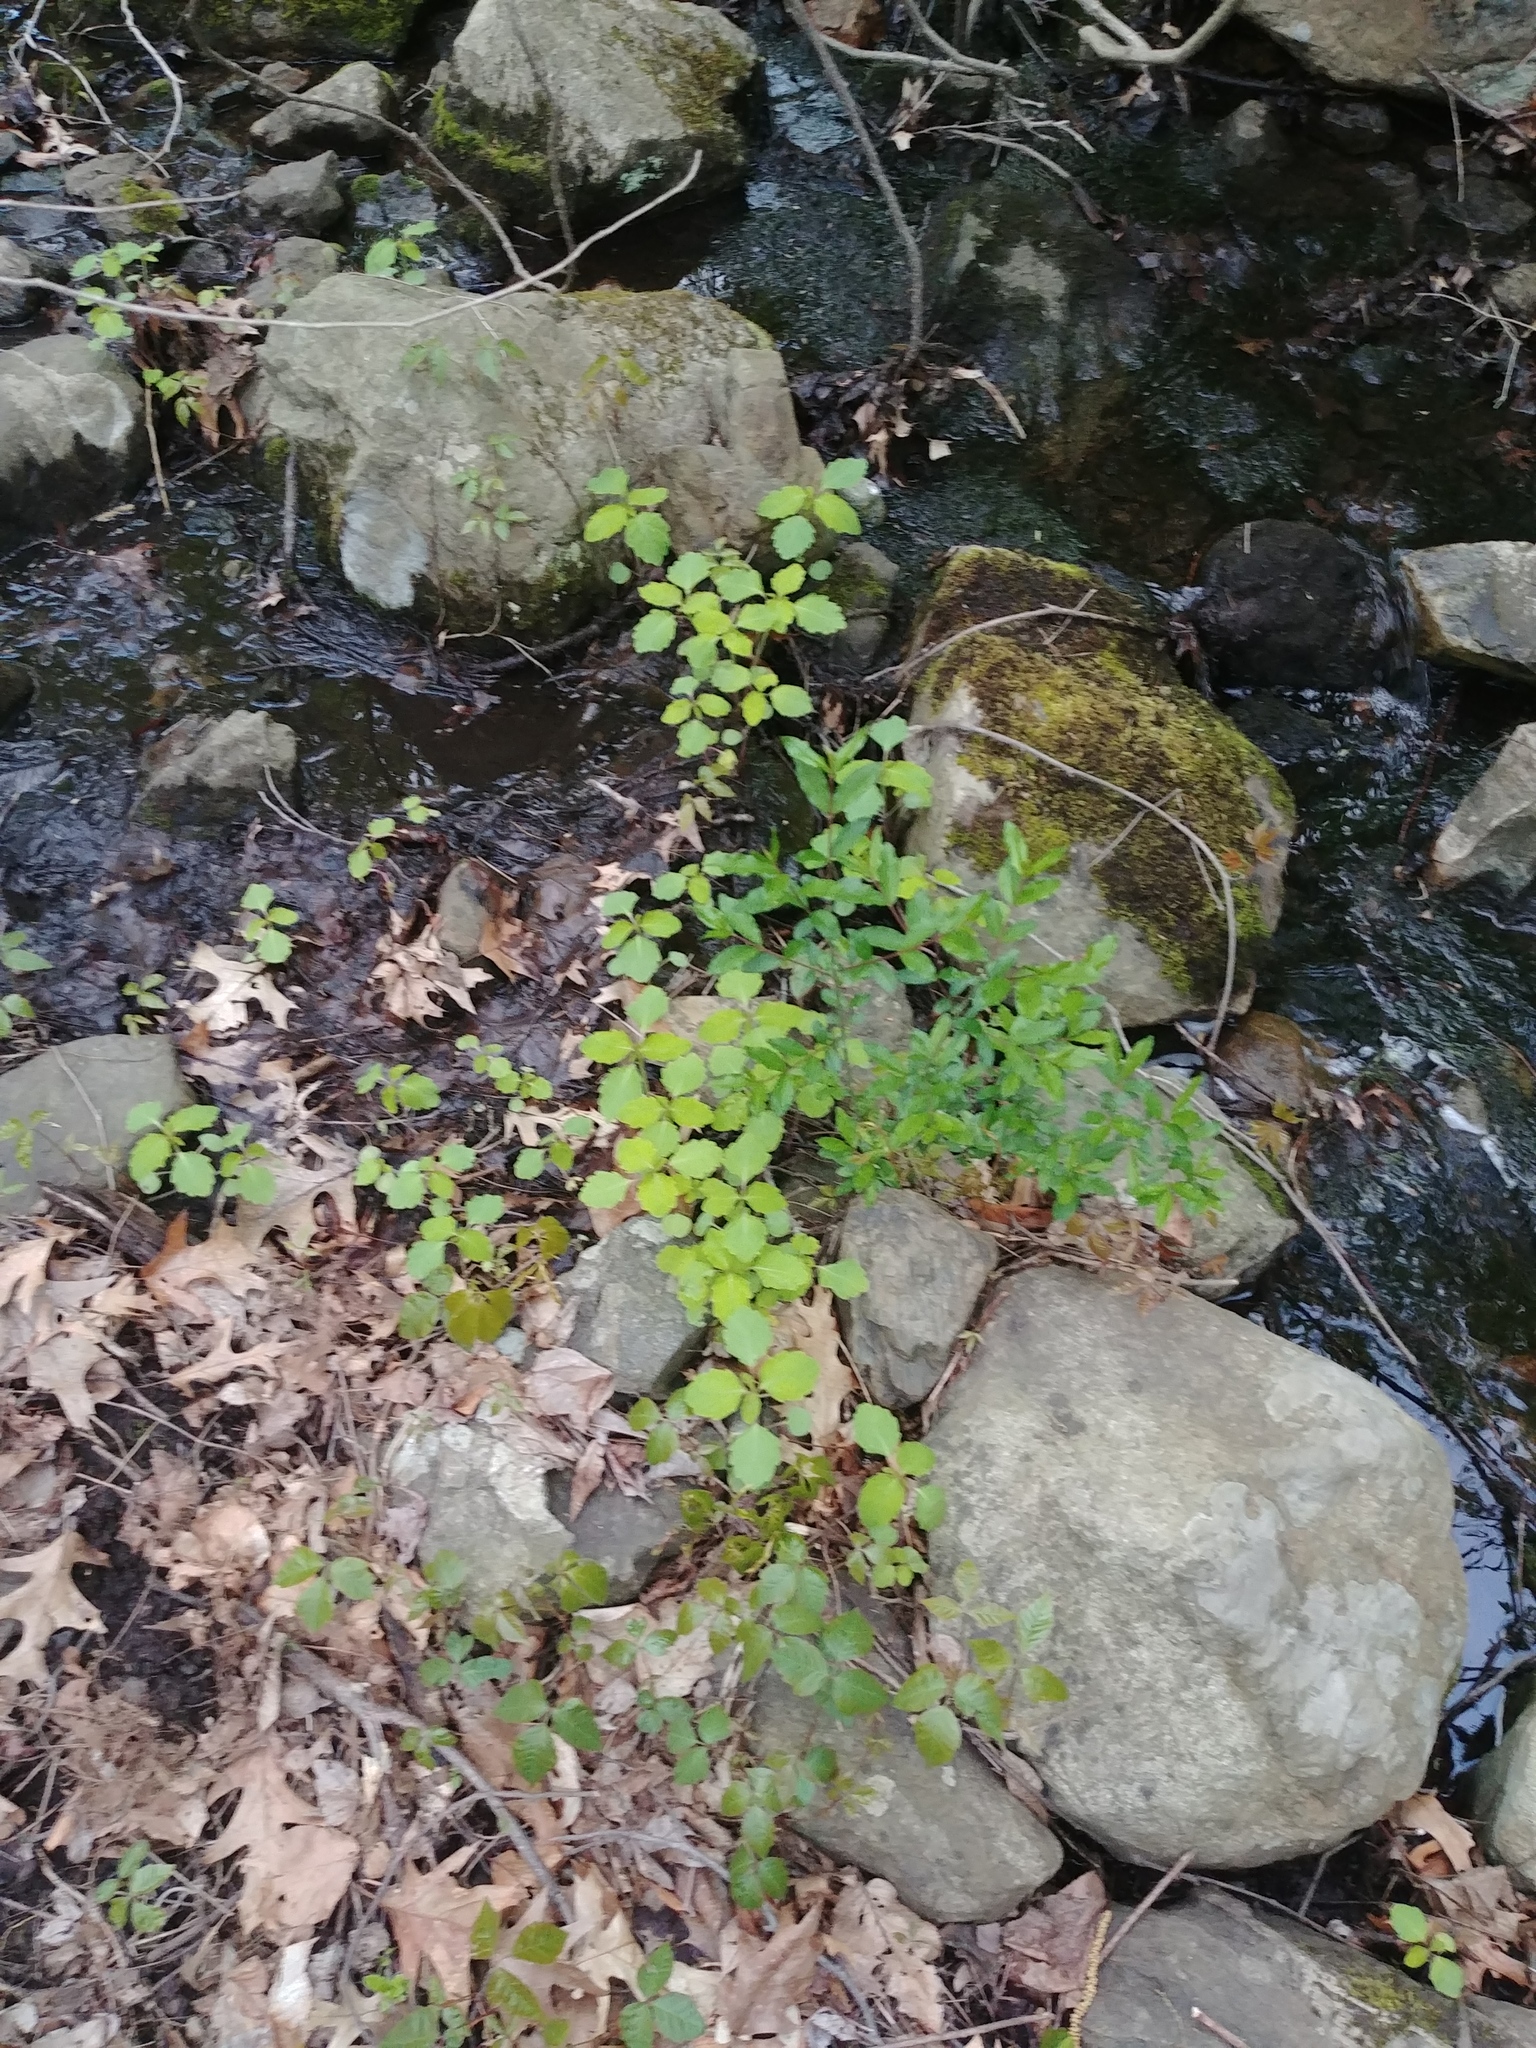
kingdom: Plantae
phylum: Tracheophyta
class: Magnoliopsida
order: Ericales
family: Balsaminaceae
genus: Impatiens
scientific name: Impatiens
